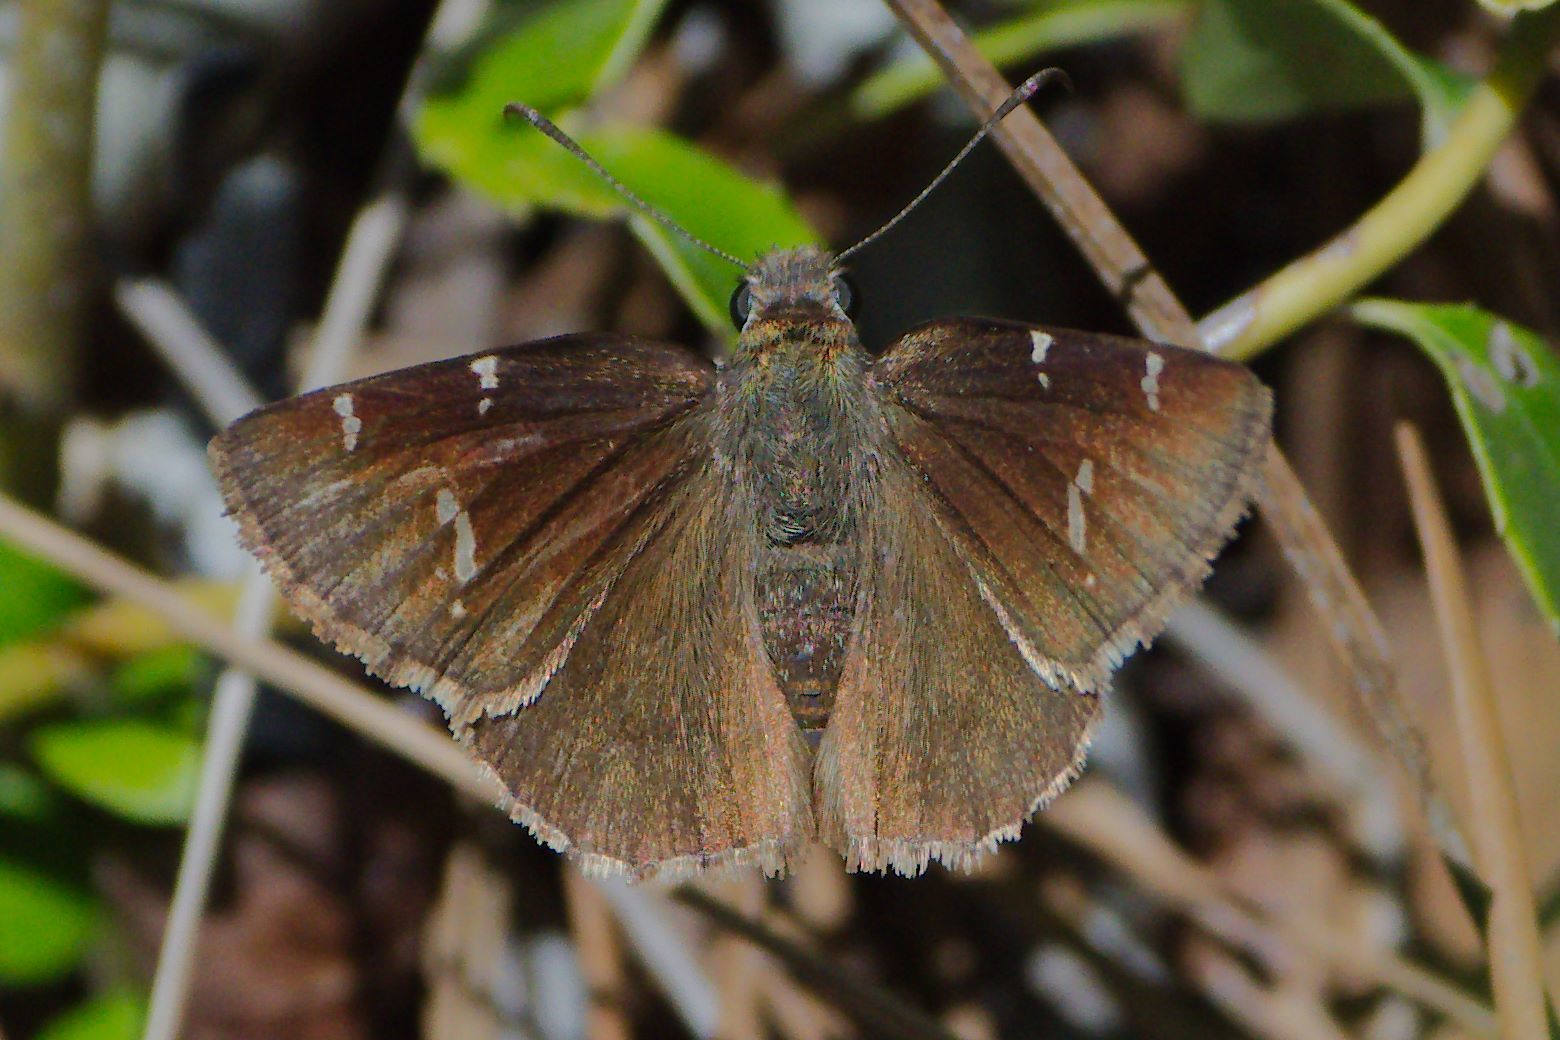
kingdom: Animalia
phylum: Arthropoda
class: Insecta
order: Lepidoptera
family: Hesperiidae
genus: Thorybes
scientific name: Thorybes daunus
